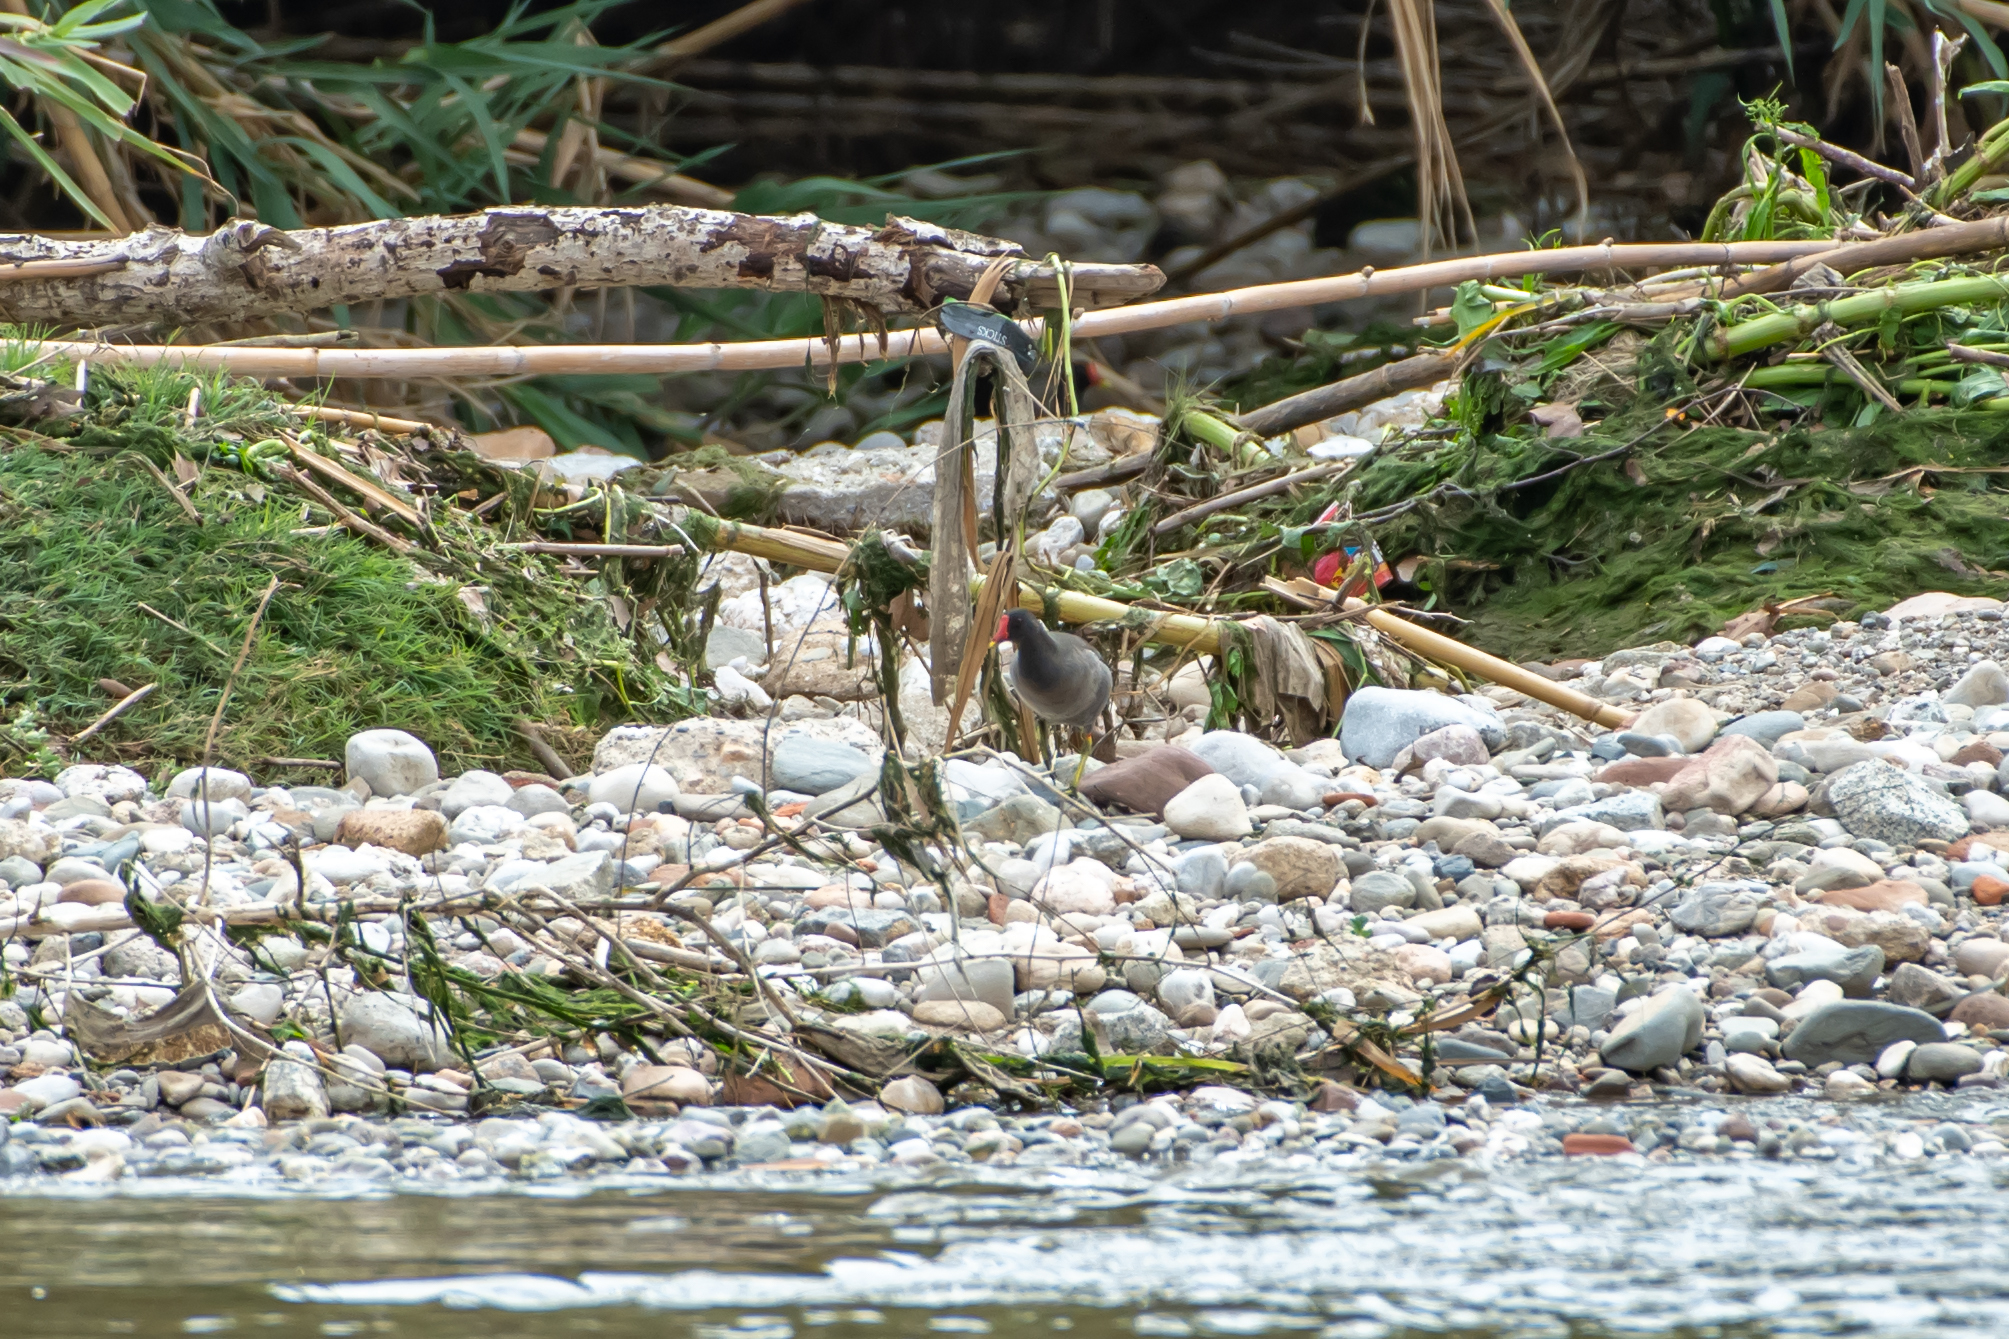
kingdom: Animalia
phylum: Chordata
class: Aves
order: Gruiformes
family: Rallidae
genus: Gallinula
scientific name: Gallinula chloropus
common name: Common moorhen
